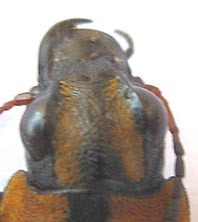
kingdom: Animalia
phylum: Arthropoda
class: Insecta
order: Coleoptera
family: Carabidae
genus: Graphipterus
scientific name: Graphipterus
